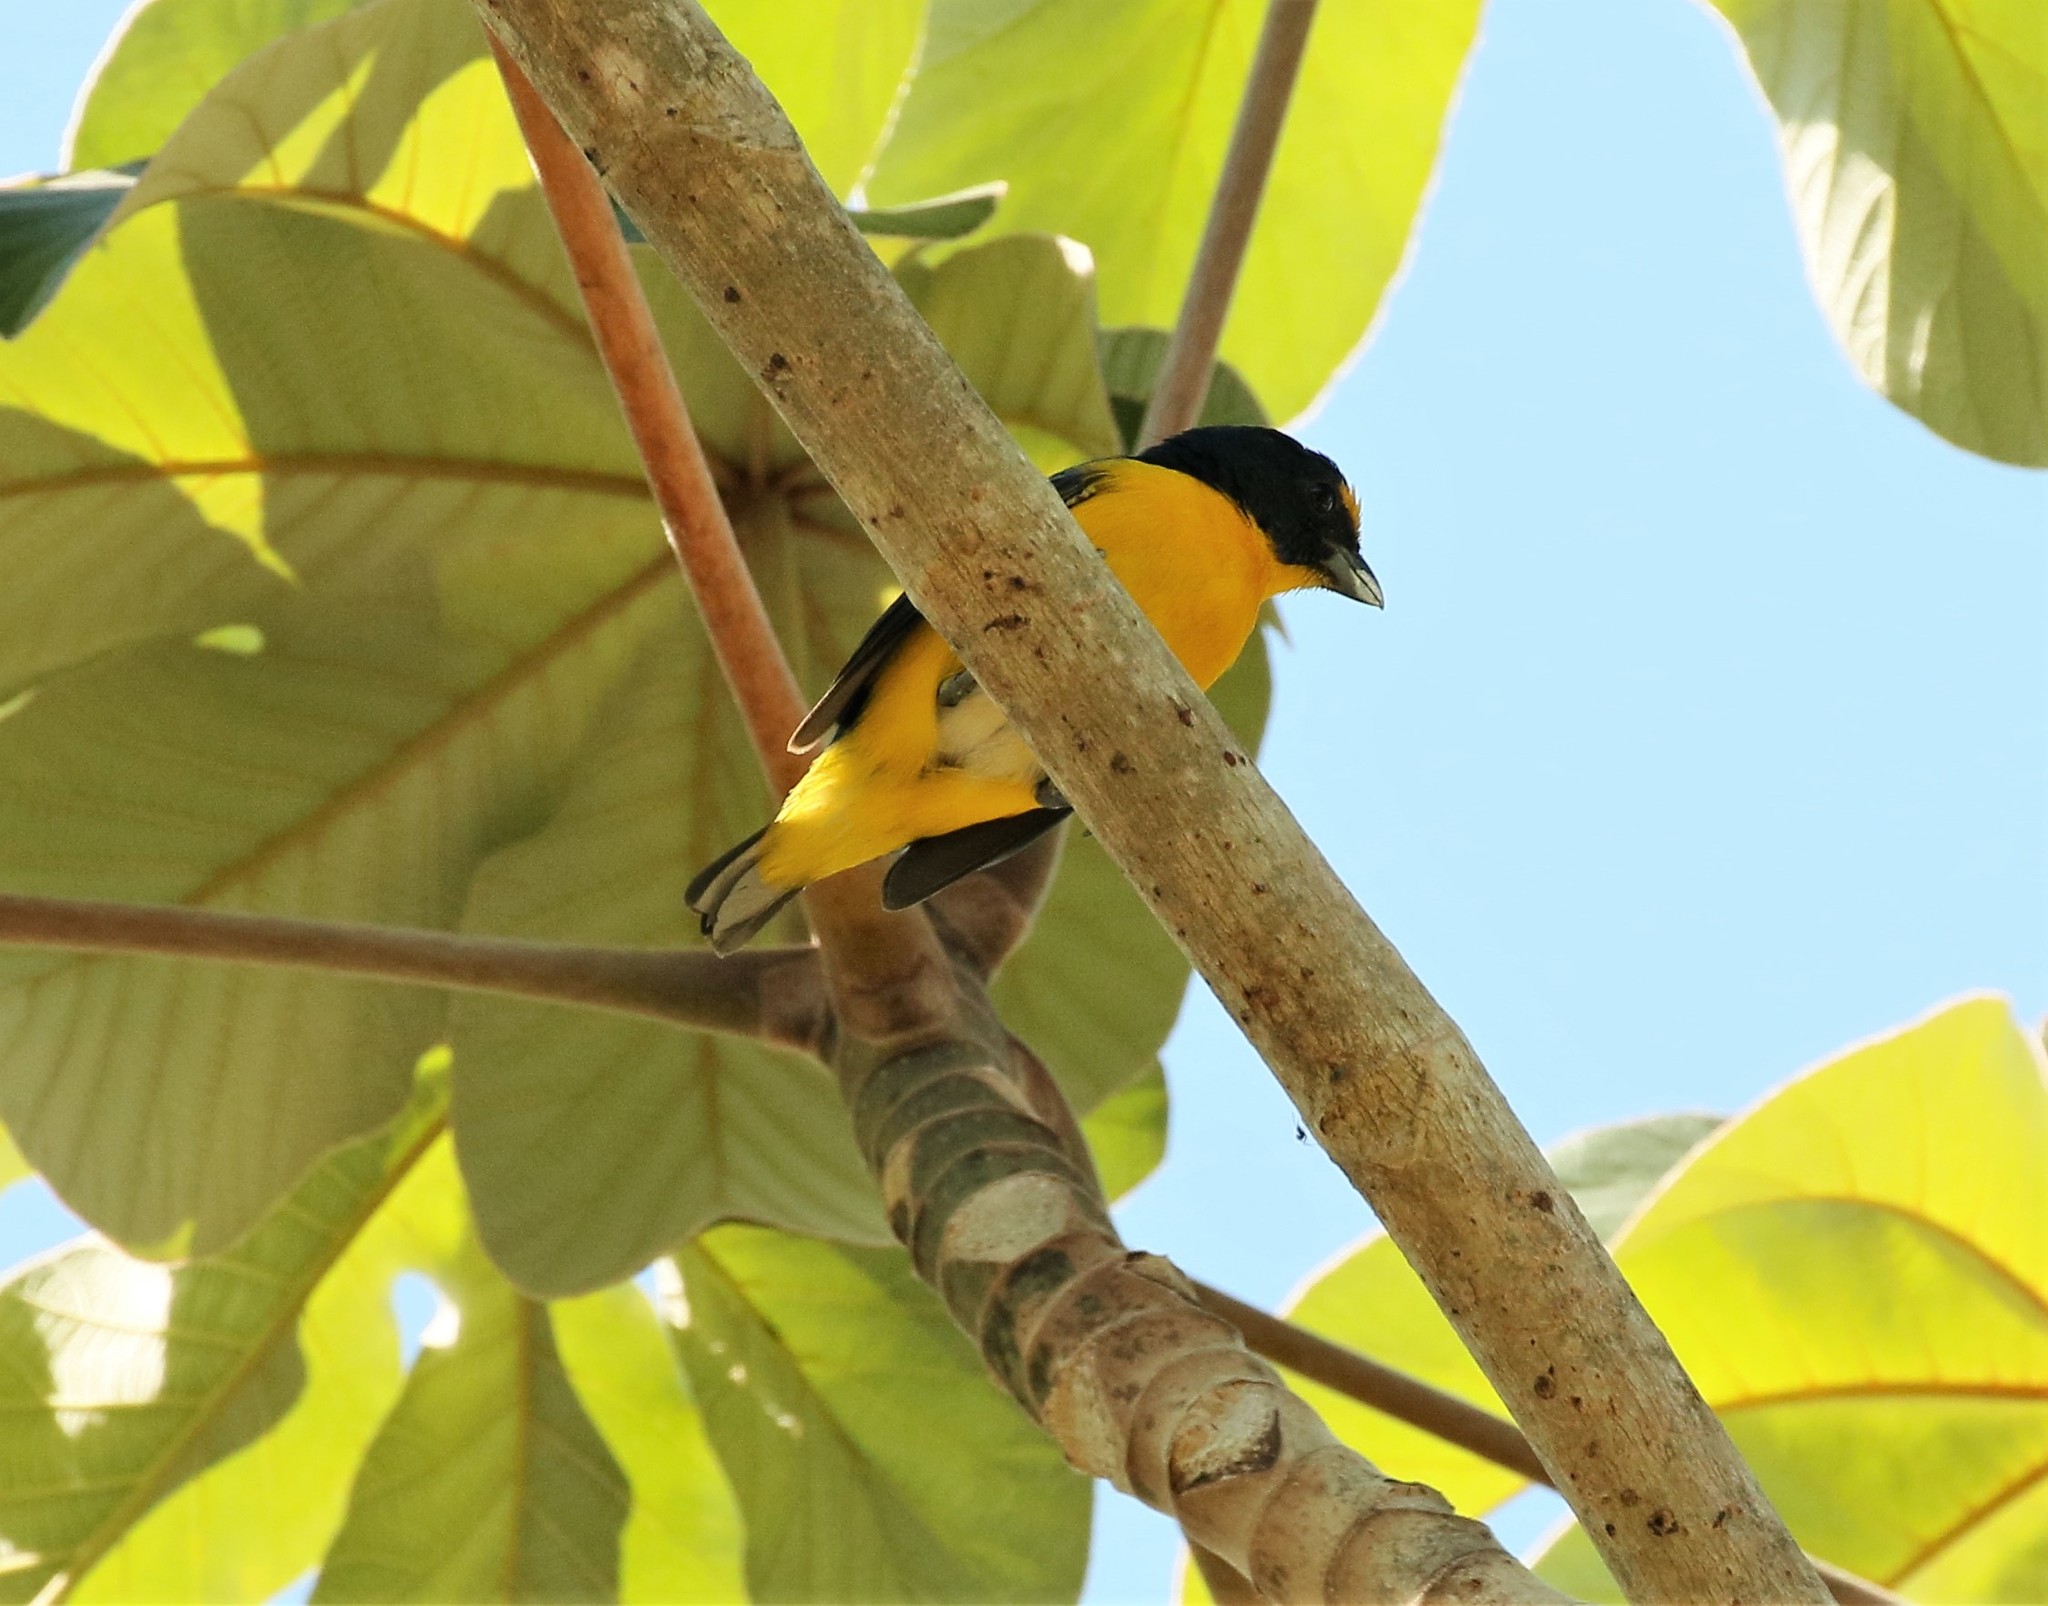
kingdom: Animalia
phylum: Chordata
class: Aves
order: Passeriformes
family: Fringillidae
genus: Euphonia
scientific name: Euphonia hirundinacea
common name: Yellow-throated euphonia
